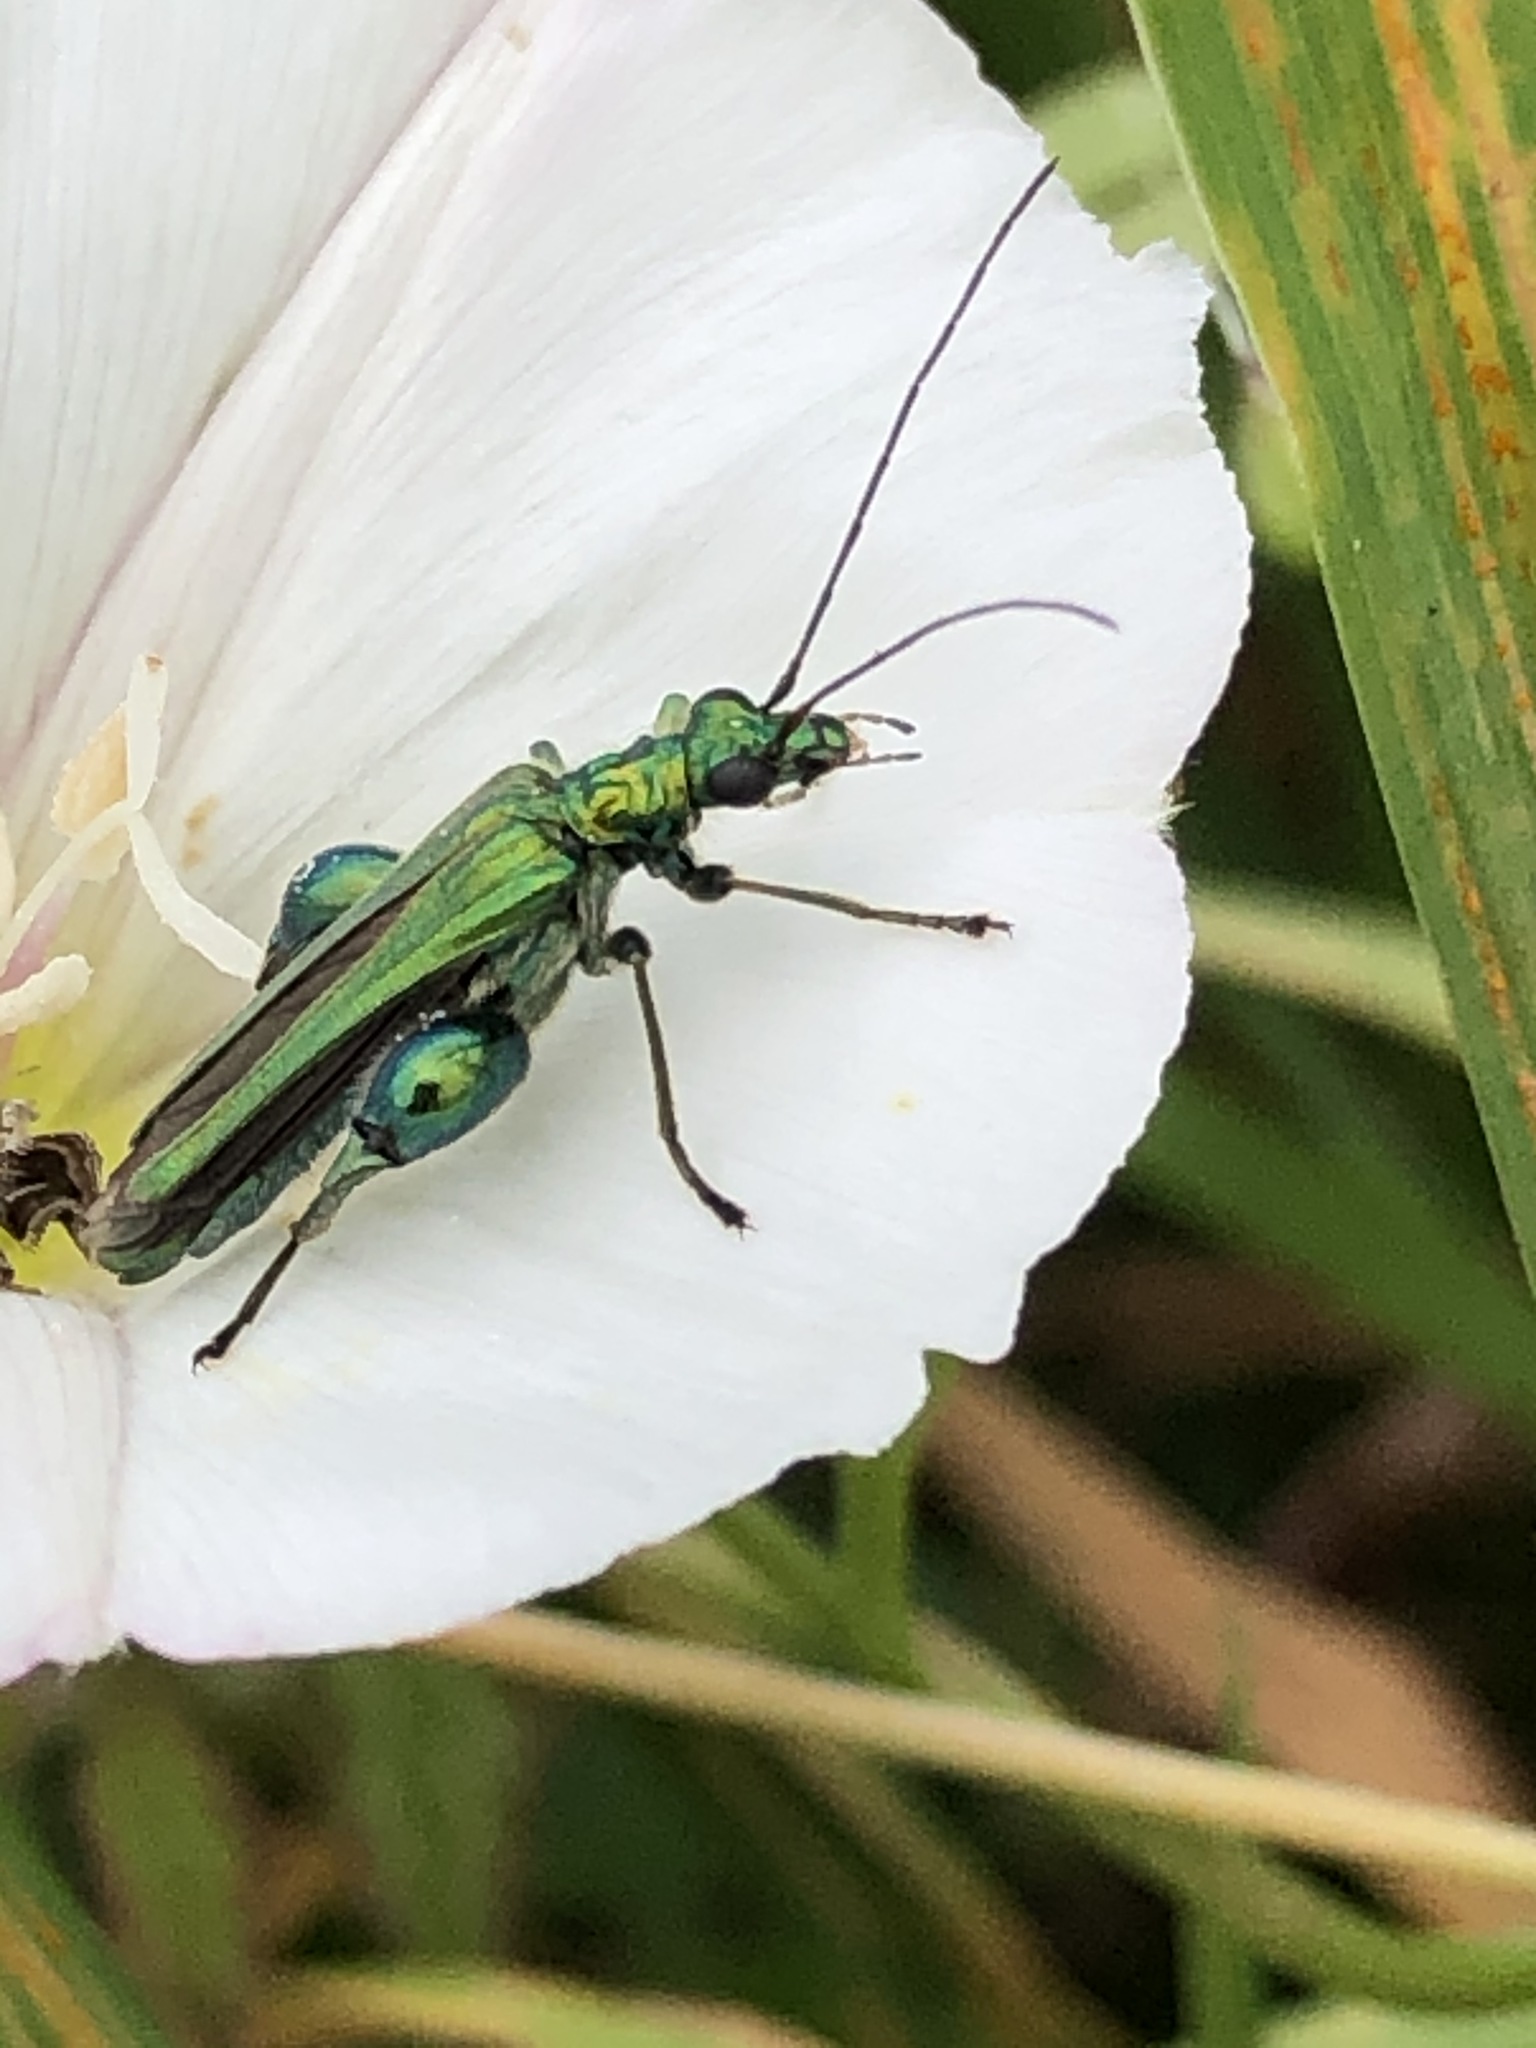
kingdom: Animalia
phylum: Arthropoda
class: Insecta
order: Coleoptera
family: Oedemeridae
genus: Oedemera
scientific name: Oedemera nobilis
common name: Swollen-thighed beetle
